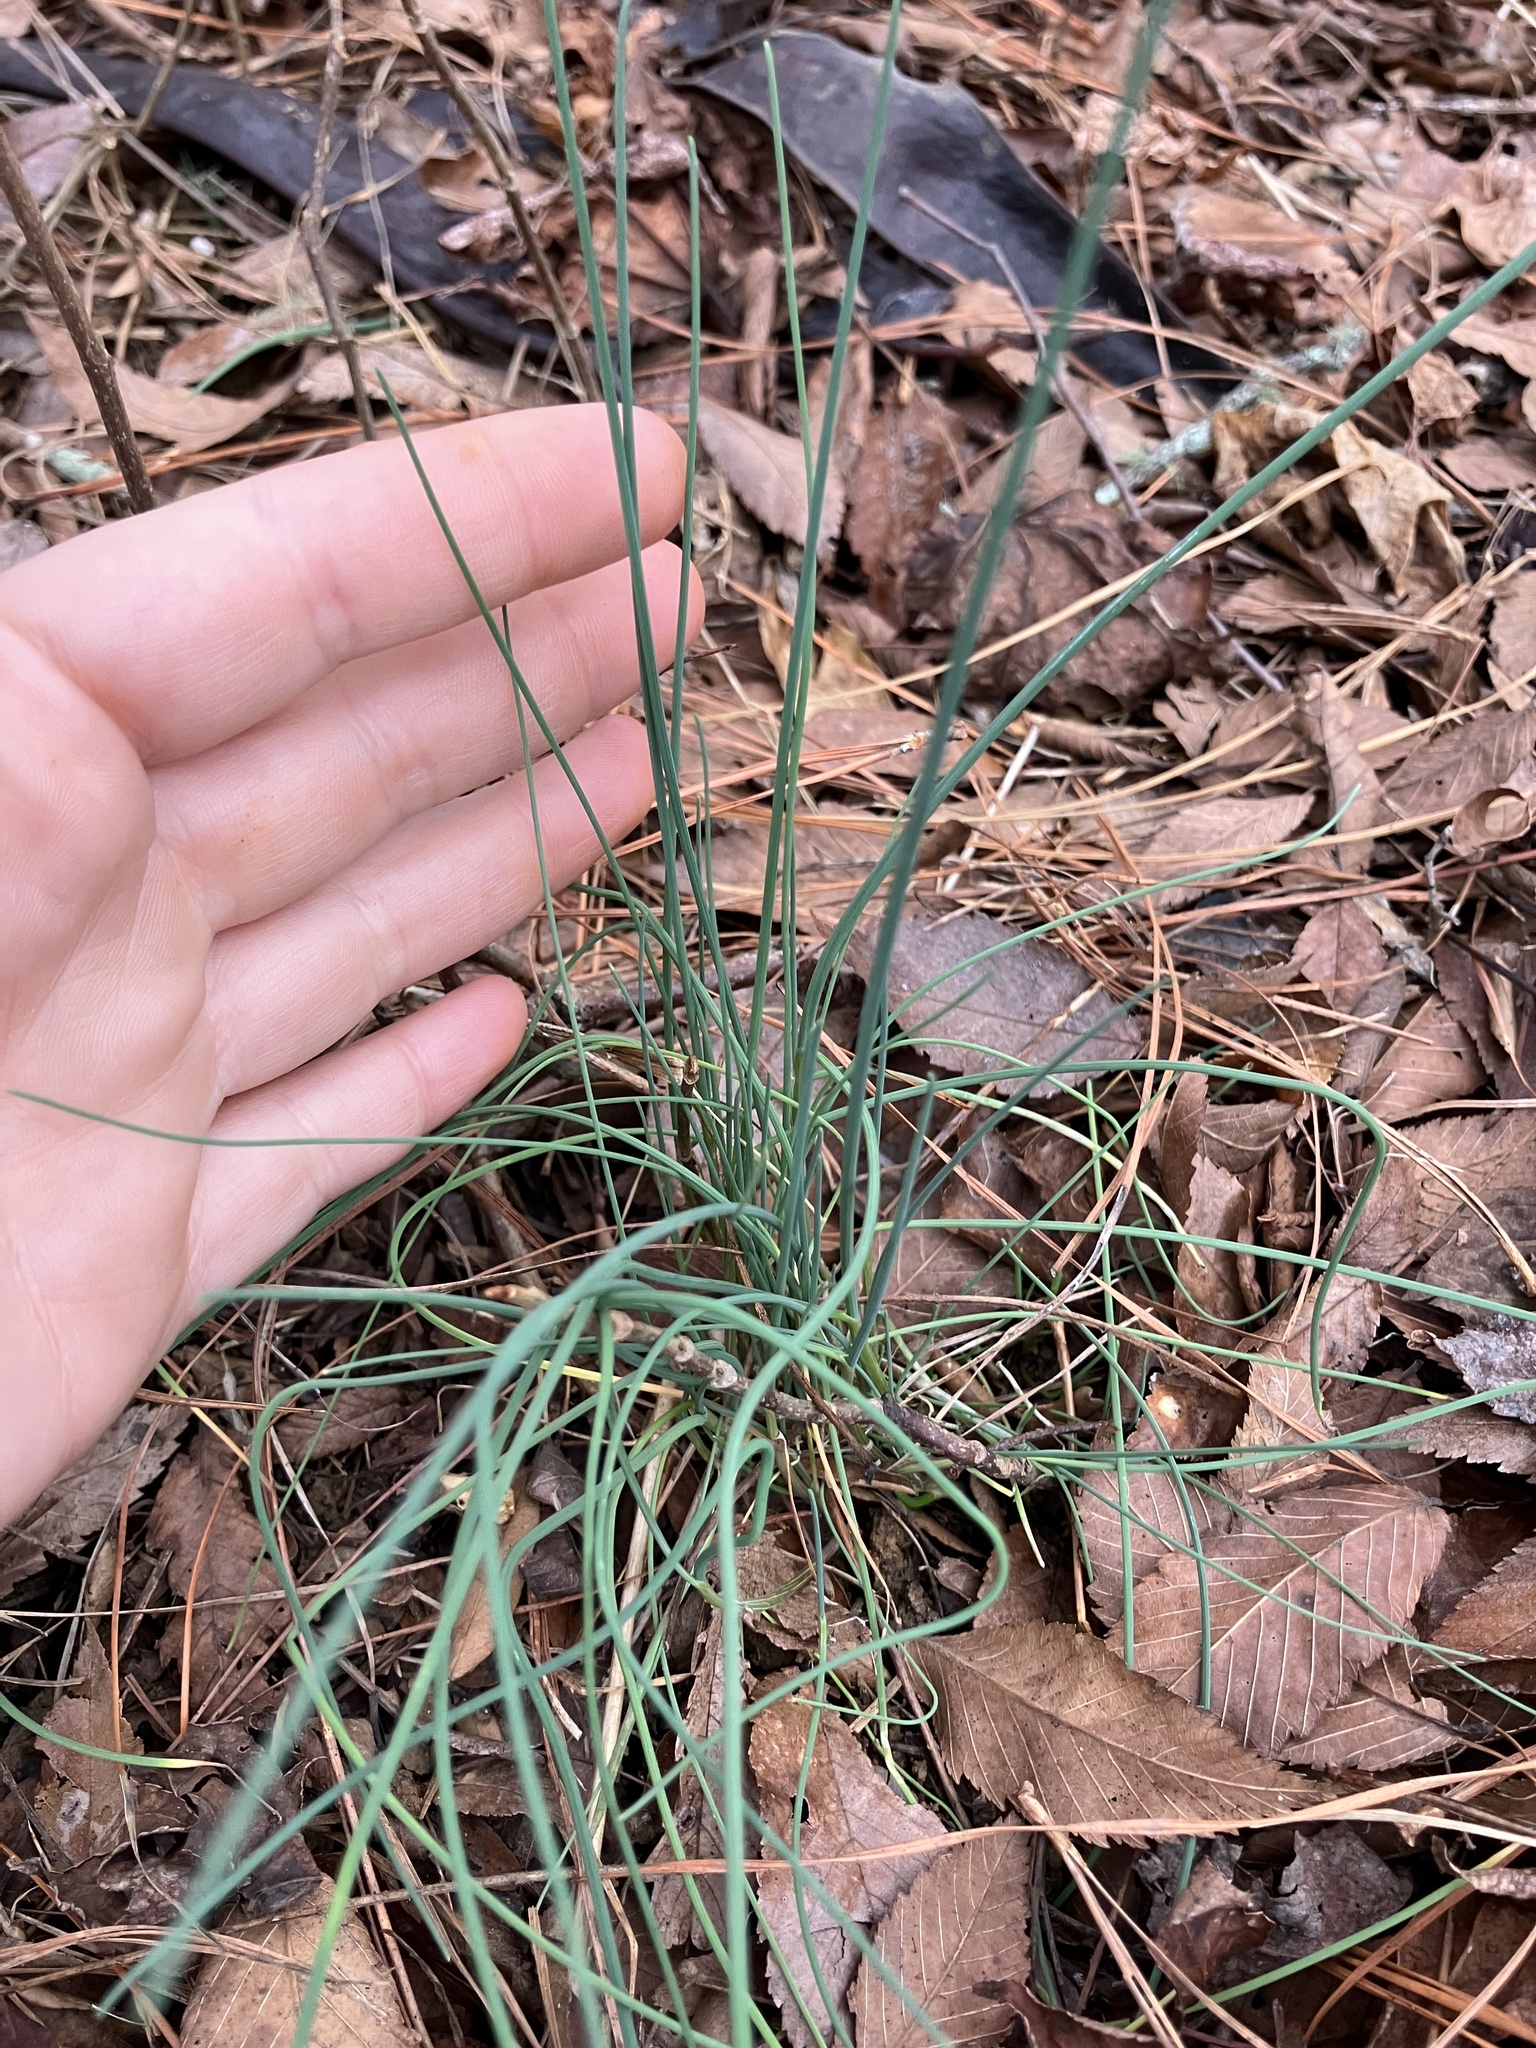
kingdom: Plantae
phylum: Tracheophyta
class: Liliopsida
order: Asparagales
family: Amaryllidaceae
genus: Allium
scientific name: Allium vineale
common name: Crow garlic
